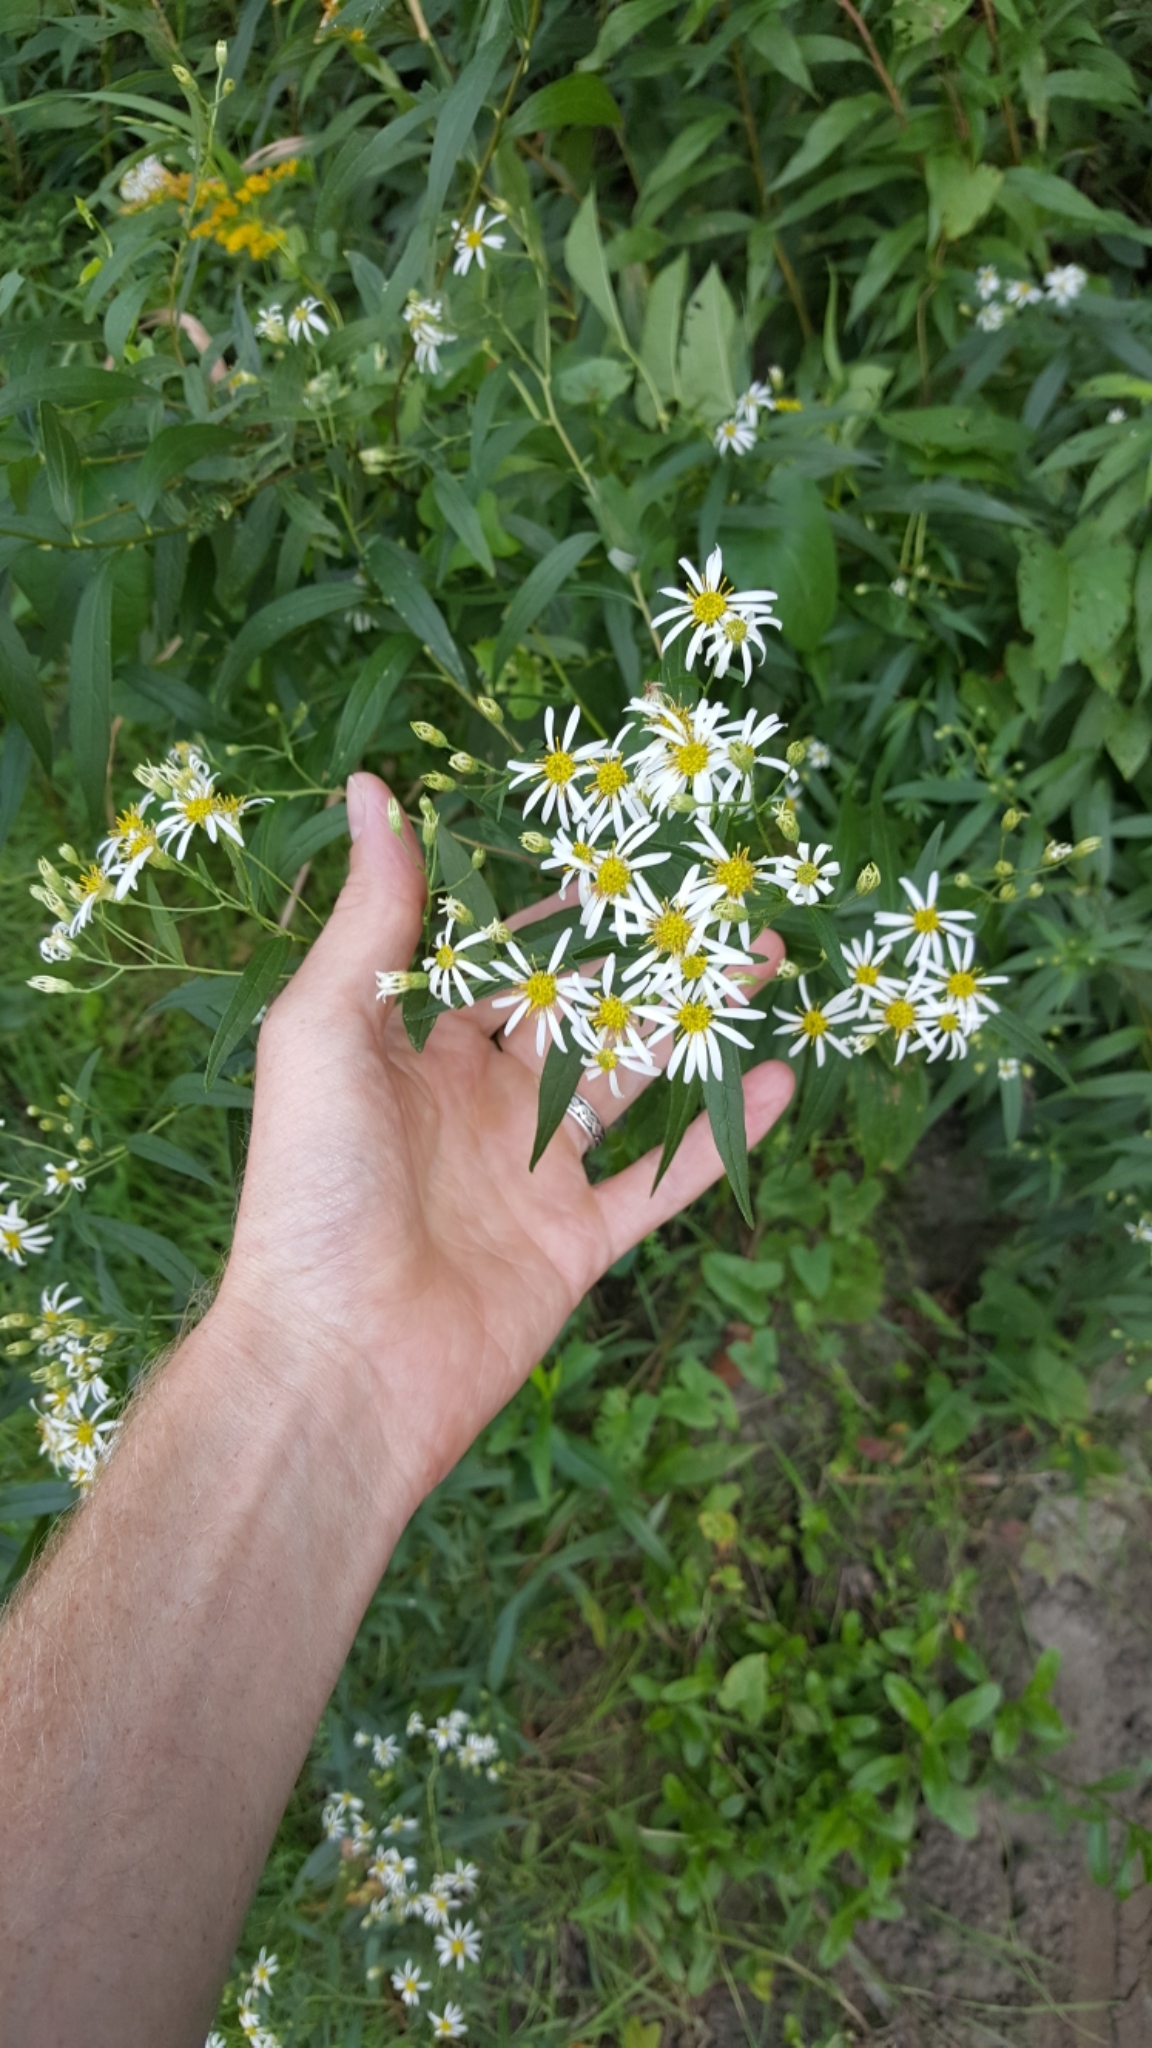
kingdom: Plantae
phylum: Tracheophyta
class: Magnoliopsida
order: Asterales
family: Asteraceae
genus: Doellingeria
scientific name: Doellingeria umbellata
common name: Flat-top white aster
